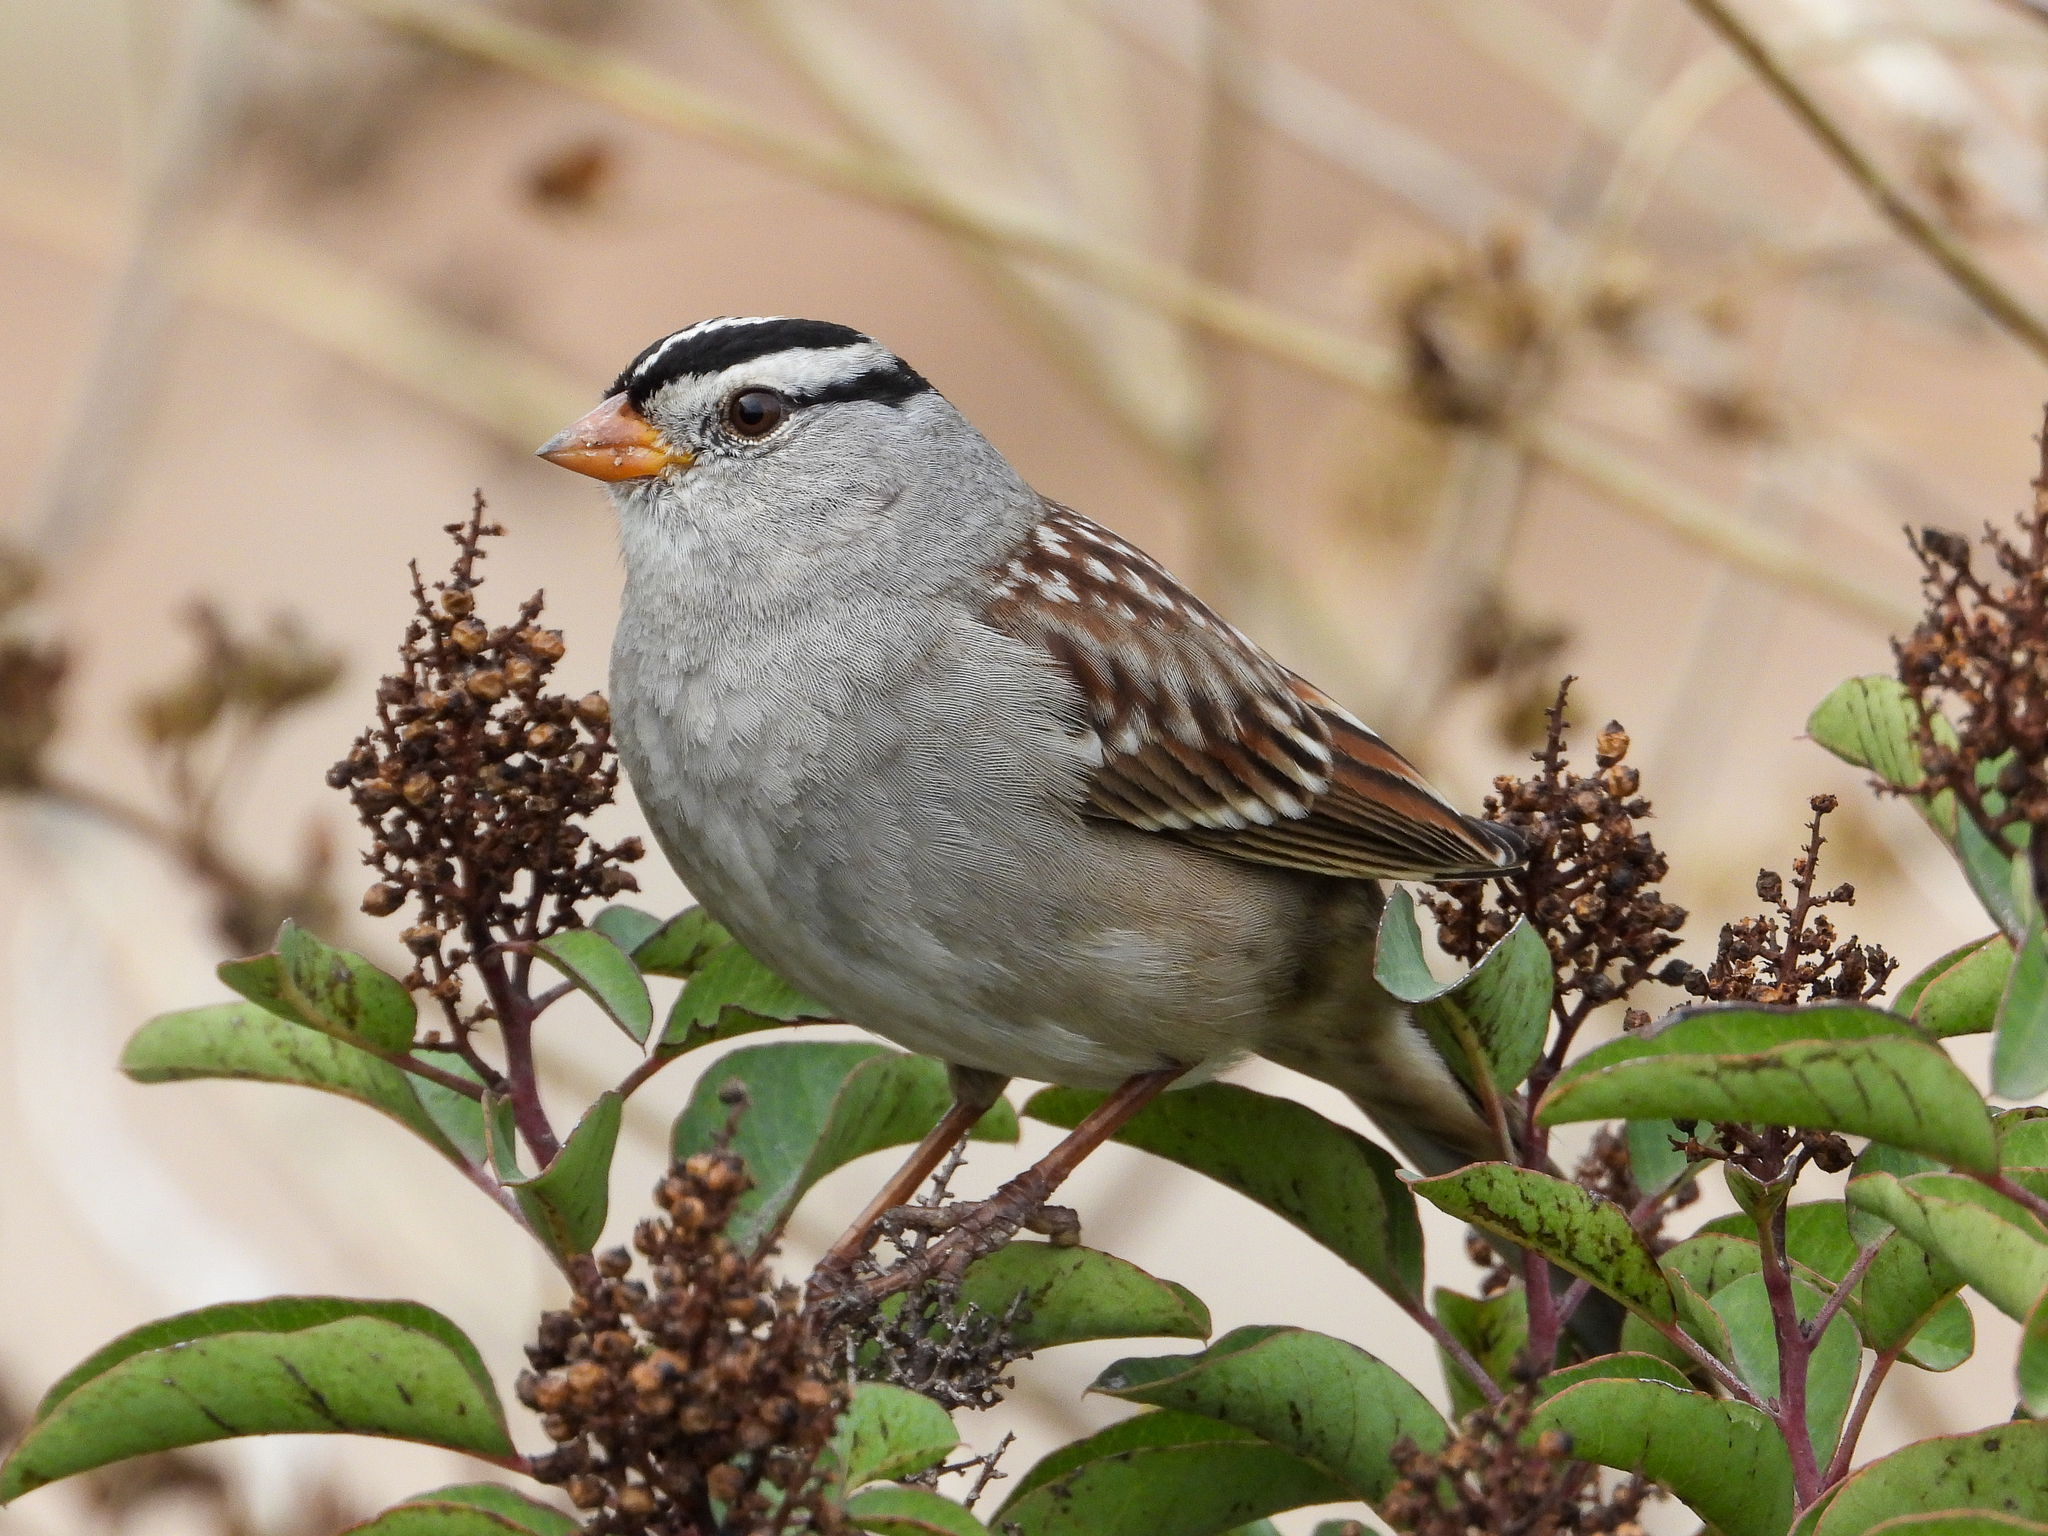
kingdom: Animalia
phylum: Chordata
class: Aves
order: Passeriformes
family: Passerellidae
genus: Zonotrichia
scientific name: Zonotrichia leucophrys
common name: White-crowned sparrow
